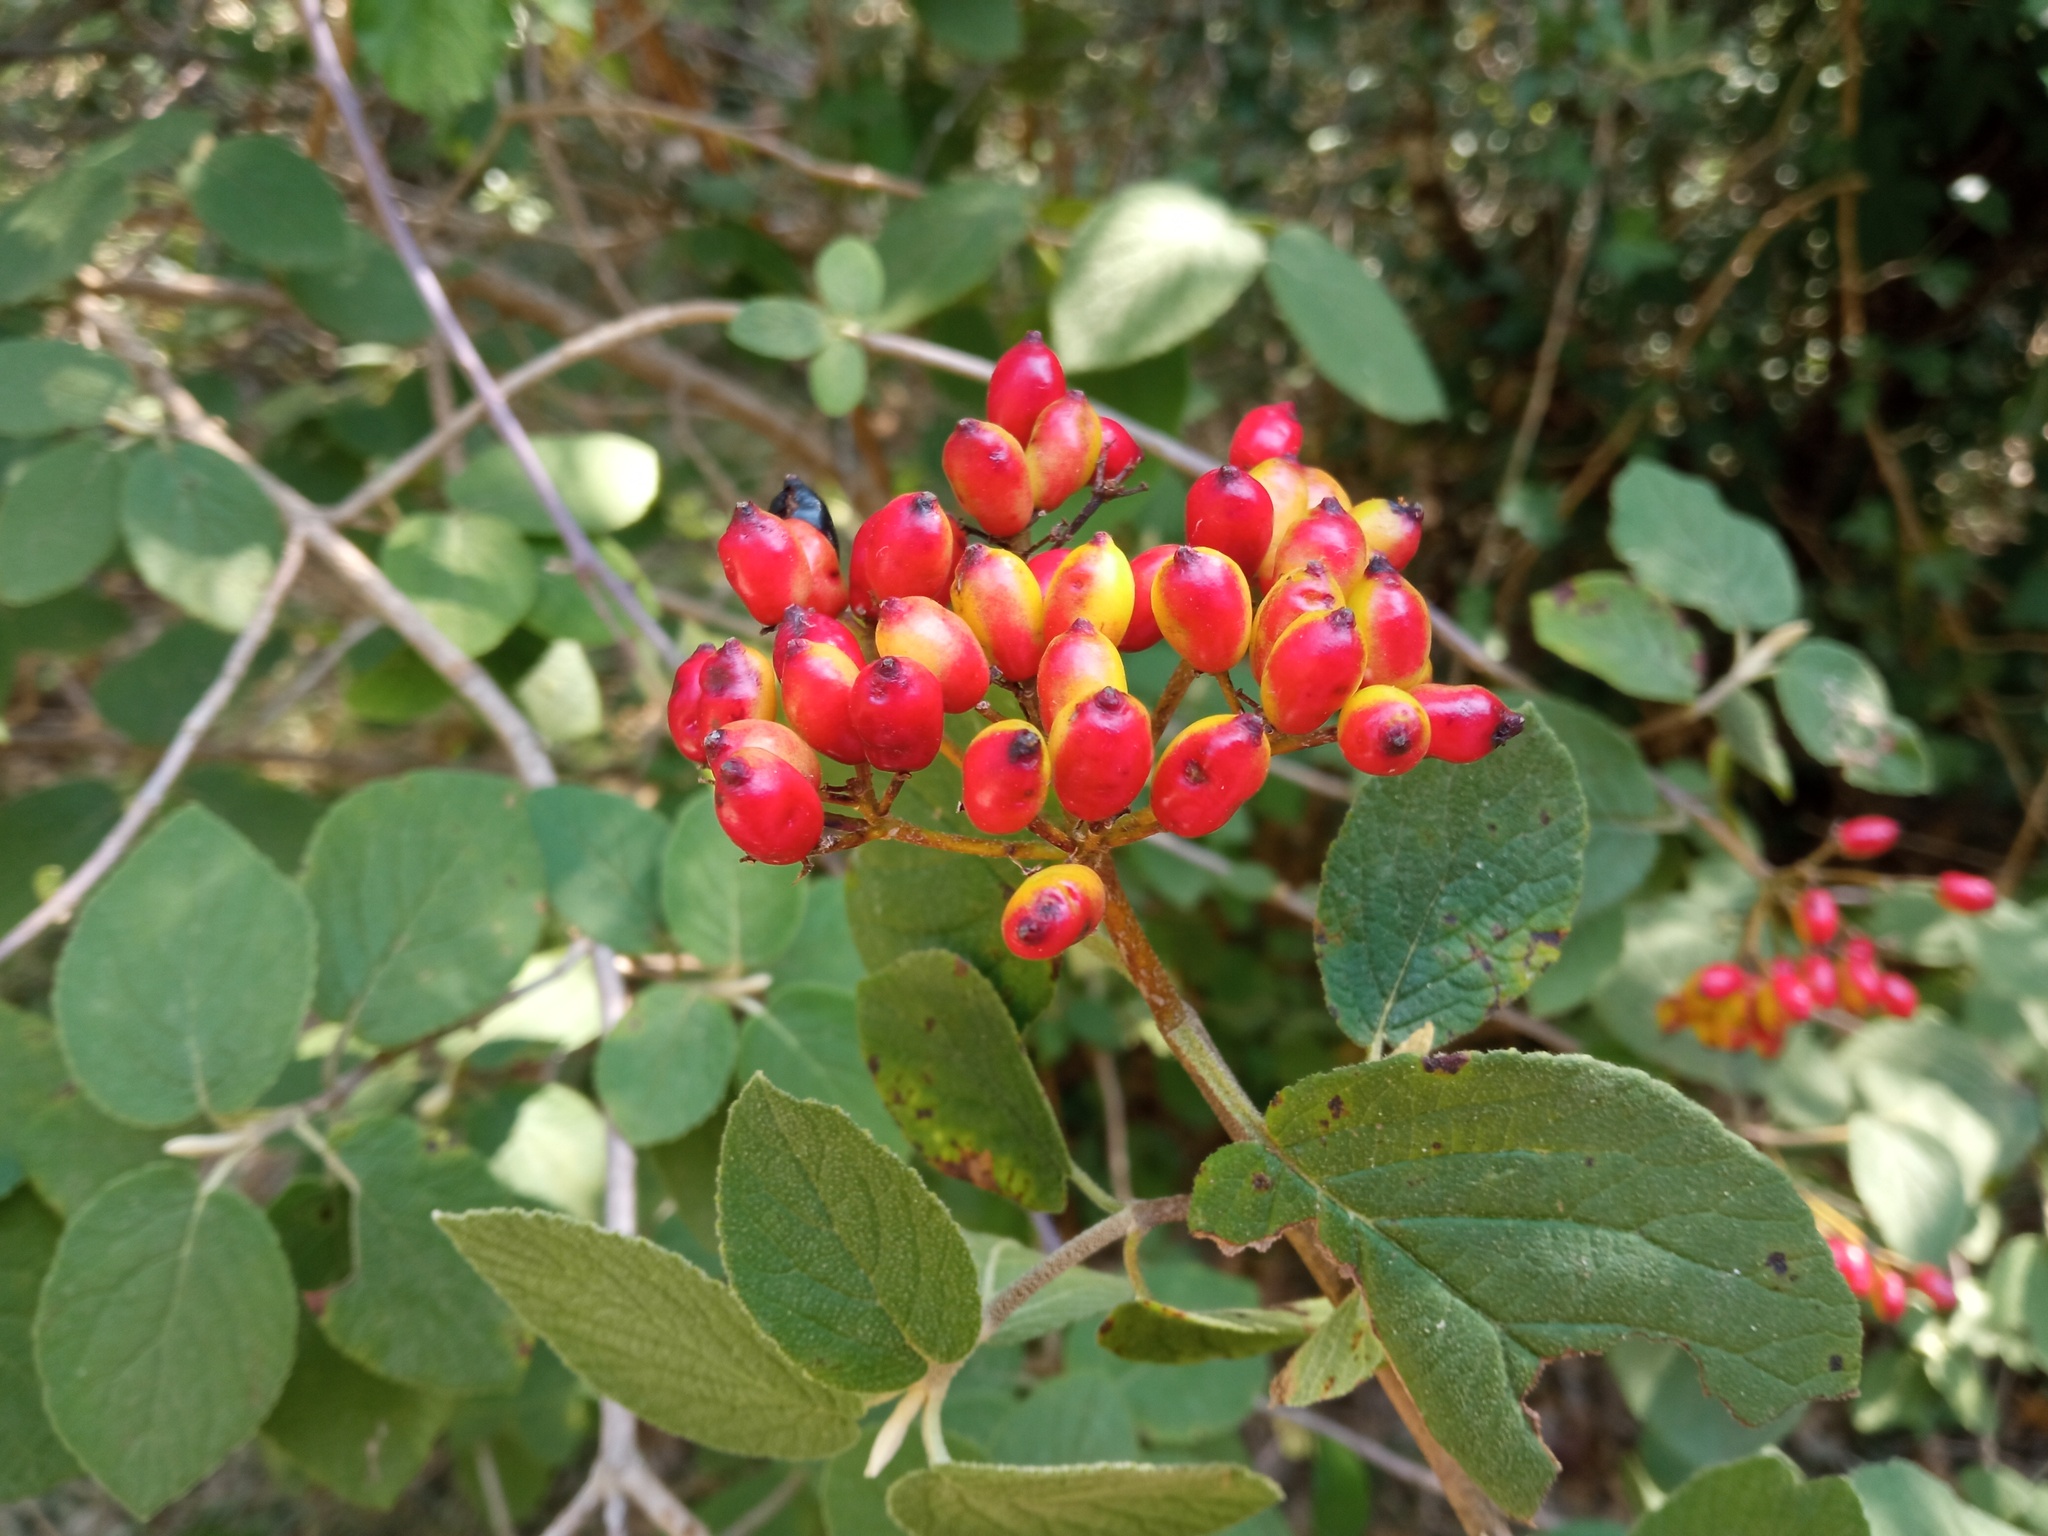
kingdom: Plantae
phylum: Tracheophyta
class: Magnoliopsida
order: Dipsacales
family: Viburnaceae
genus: Viburnum
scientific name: Viburnum lantana
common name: Wayfaring tree
